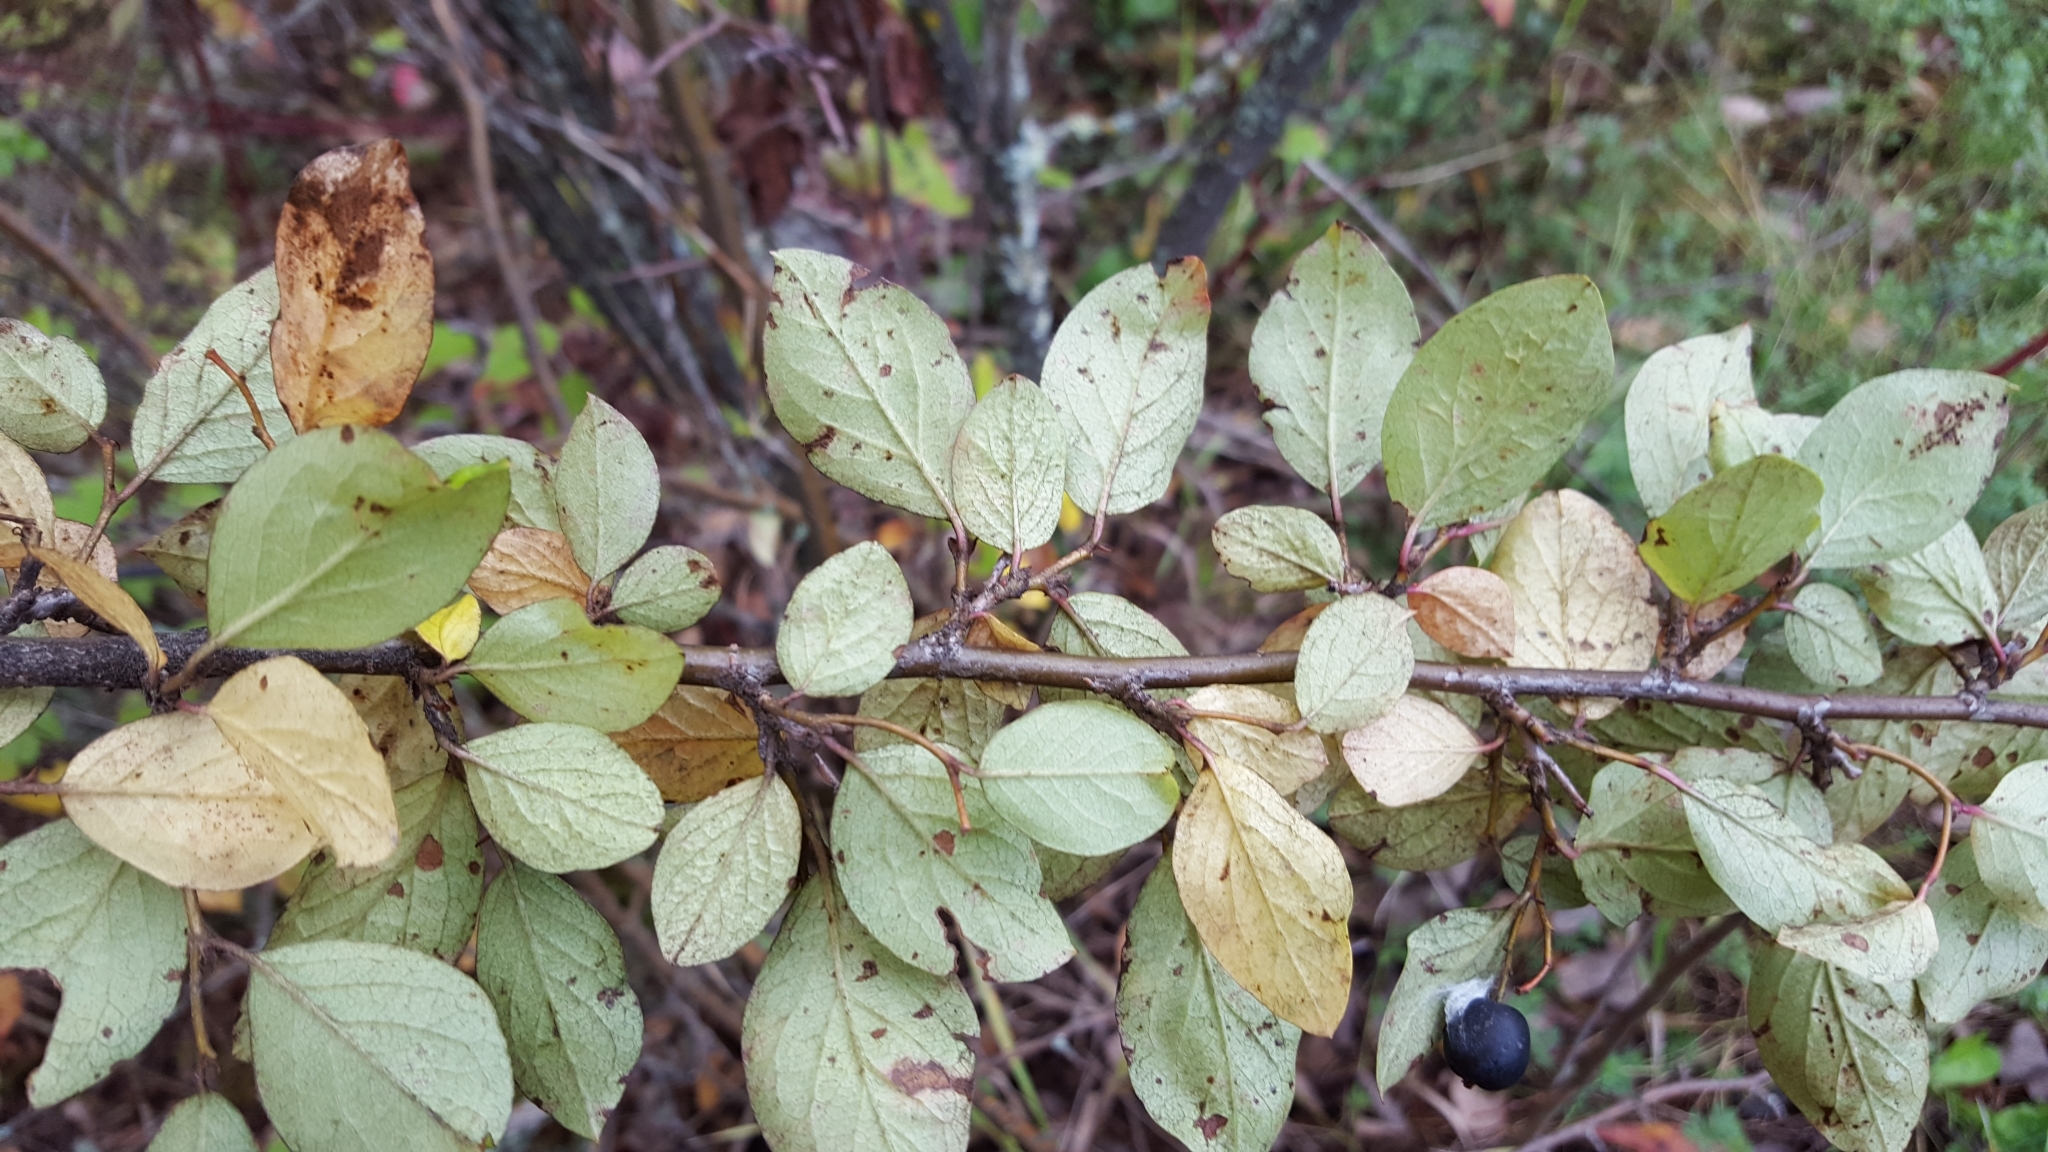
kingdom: Plantae
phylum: Tracheophyta
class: Magnoliopsida
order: Rosales
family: Rosaceae
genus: Cotoneaster
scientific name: Cotoneaster acutifolius
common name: Peking cotoneaster
